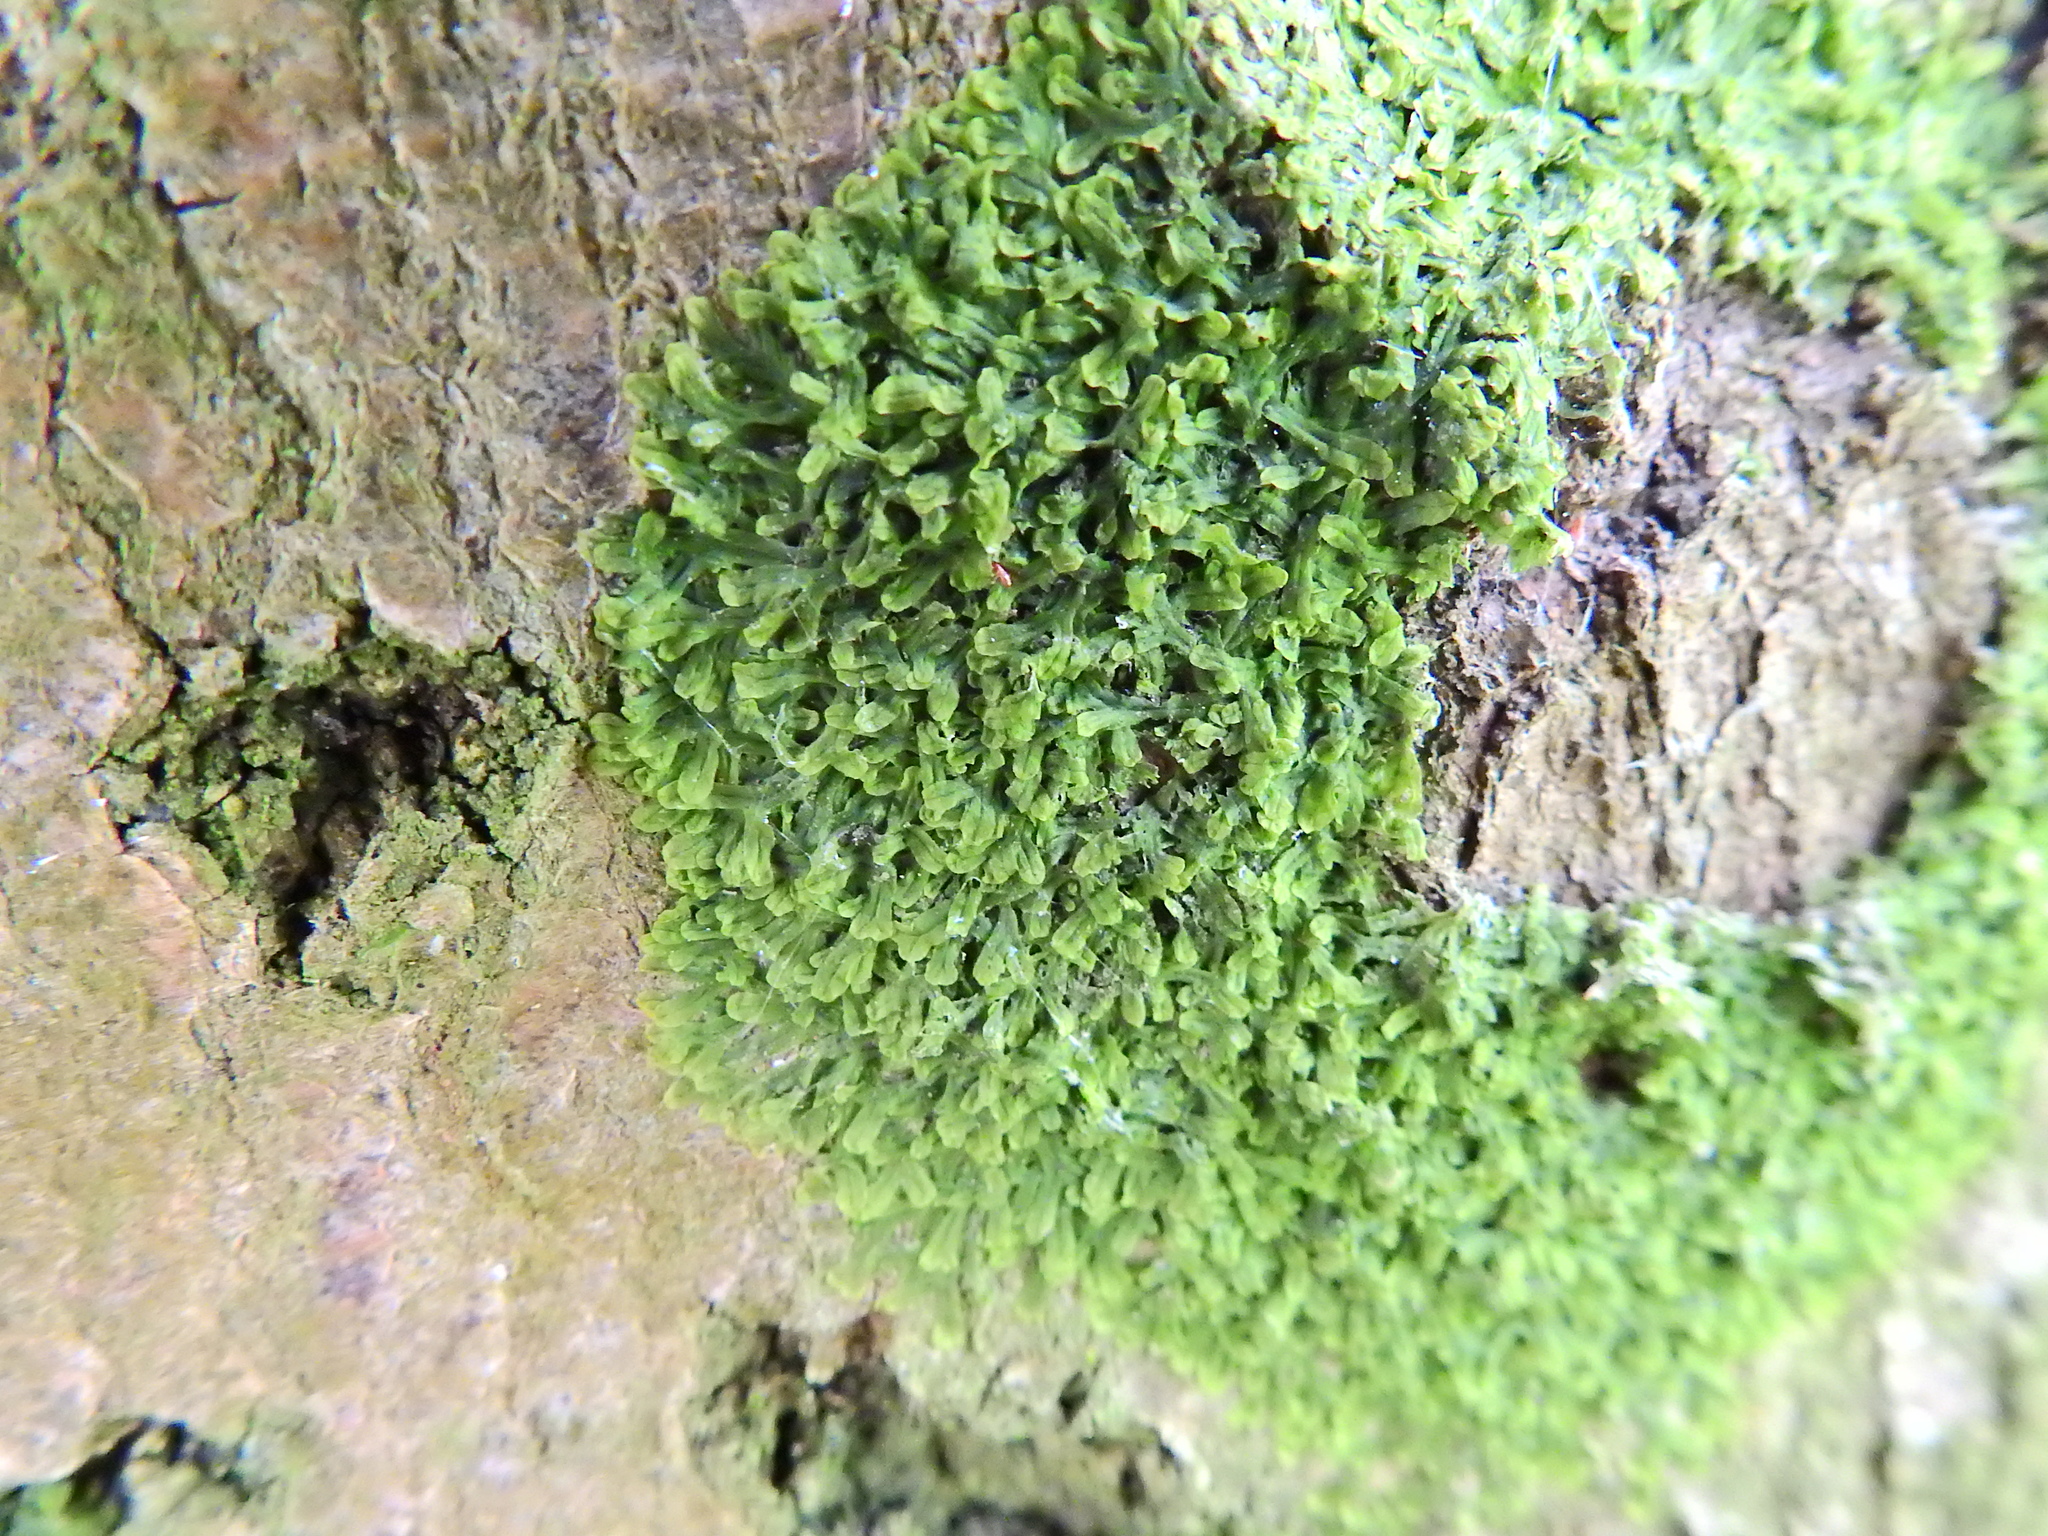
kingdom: Plantae
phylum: Marchantiophyta
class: Jungermanniopsida
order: Metzgeriales
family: Metzgeriaceae
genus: Metzgeria
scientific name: Metzgeria furcata
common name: Forked veilwort
